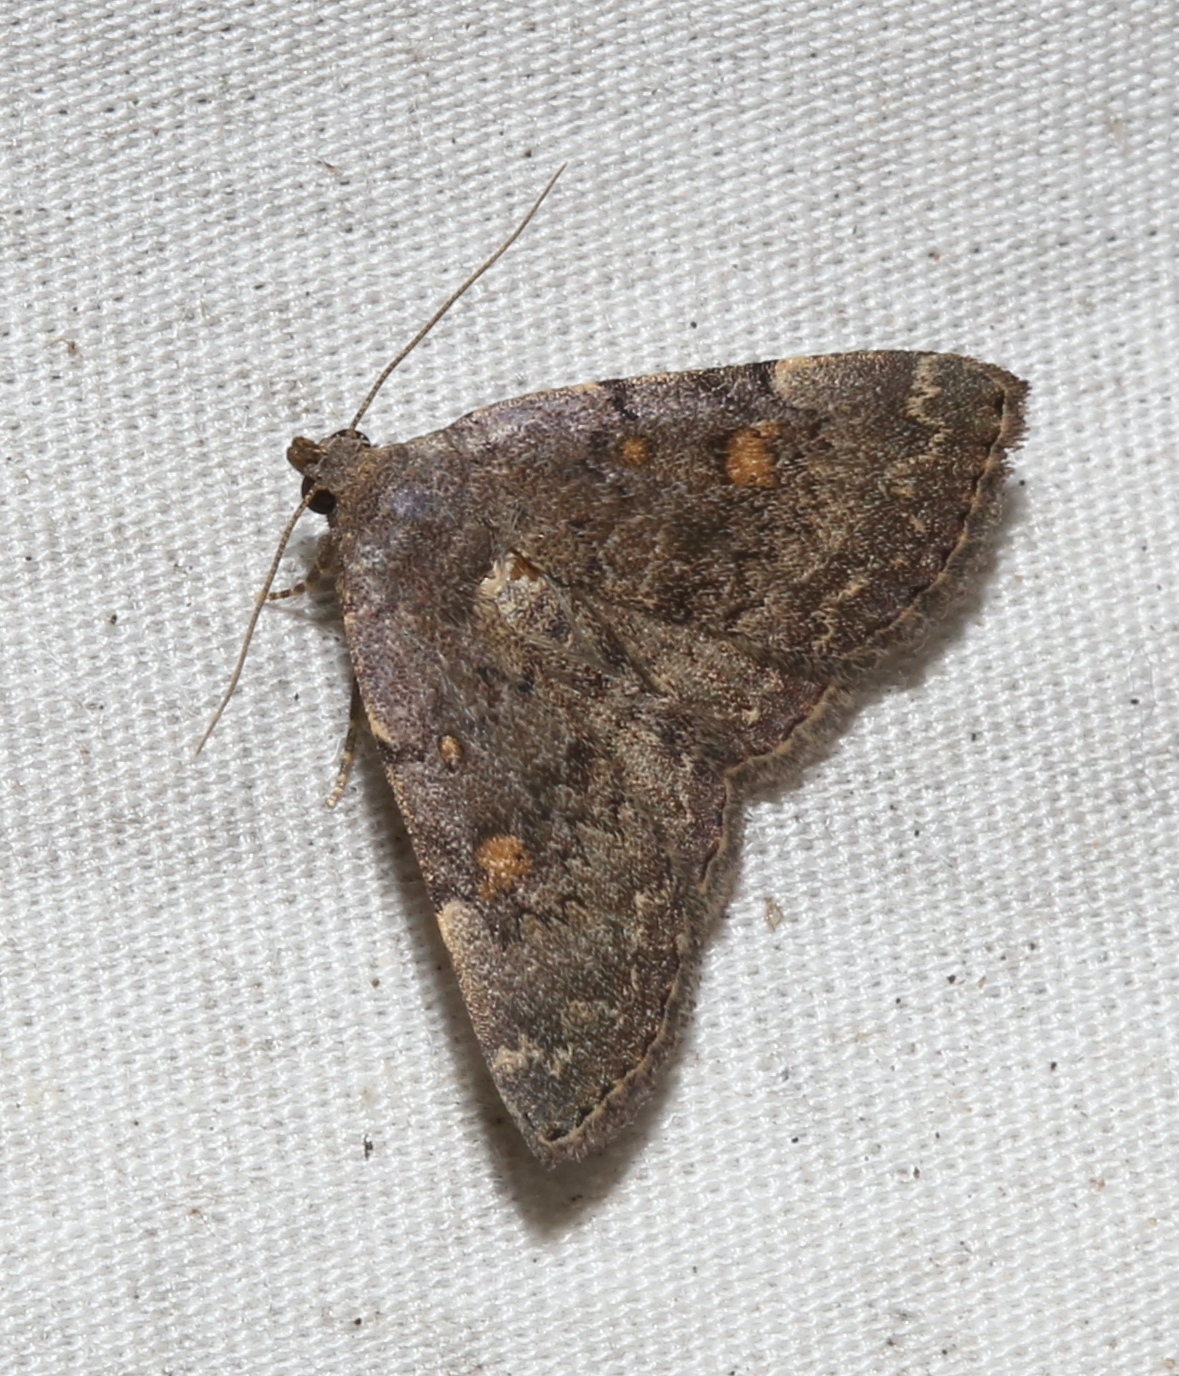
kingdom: Animalia
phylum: Arthropoda
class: Insecta
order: Lepidoptera
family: Erebidae
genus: Idia
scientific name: Idia aemula
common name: Common idia moth
